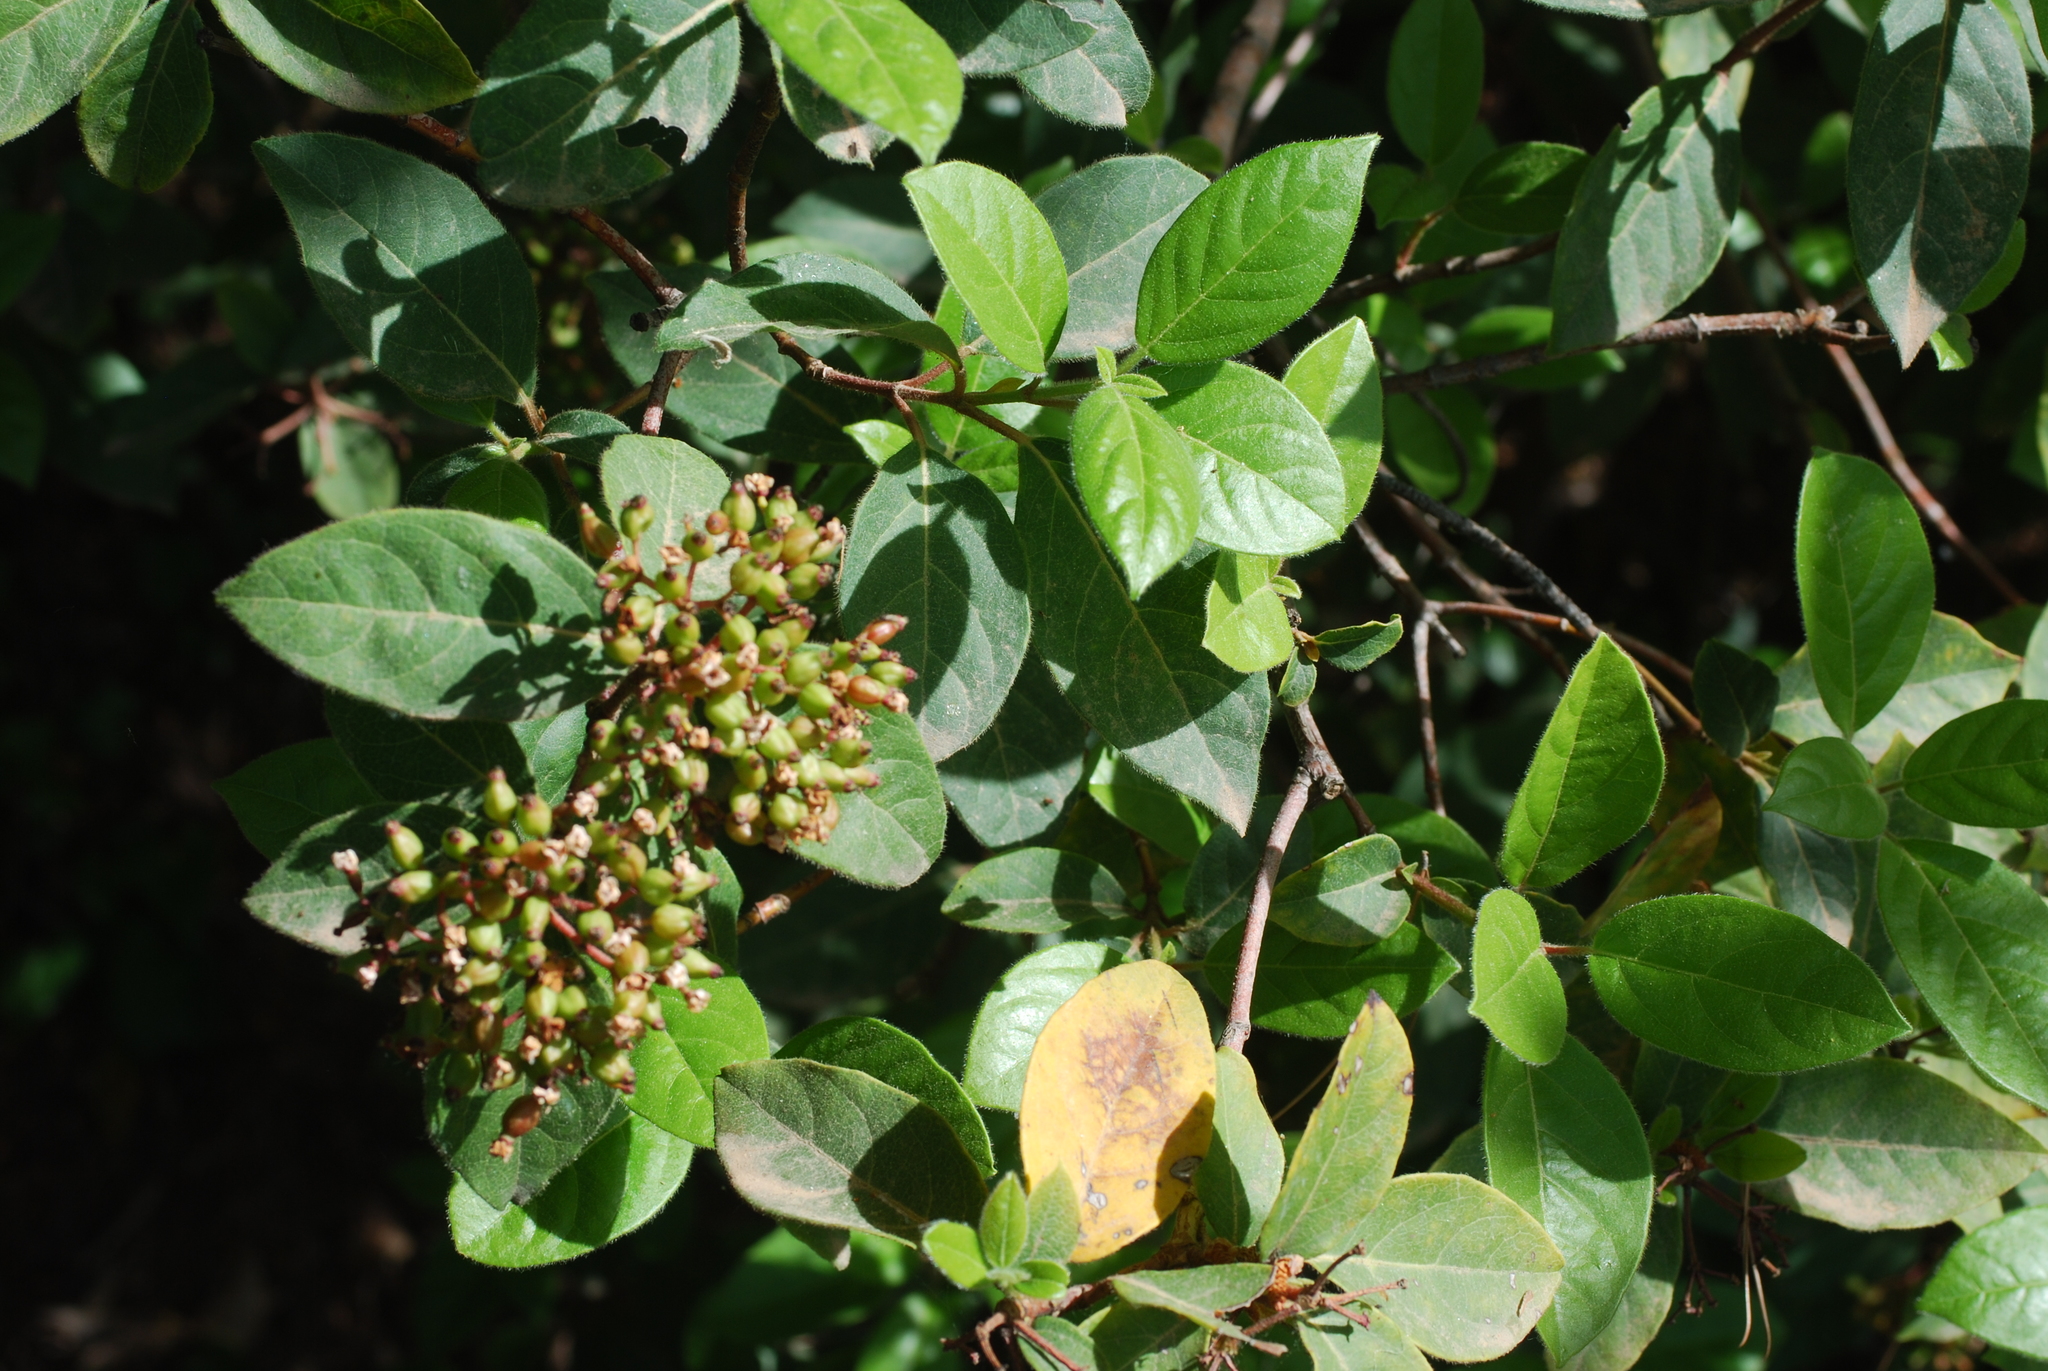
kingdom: Plantae
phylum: Tracheophyta
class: Magnoliopsida
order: Dipsacales
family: Viburnaceae
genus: Viburnum
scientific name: Viburnum tinus
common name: Laurustinus
